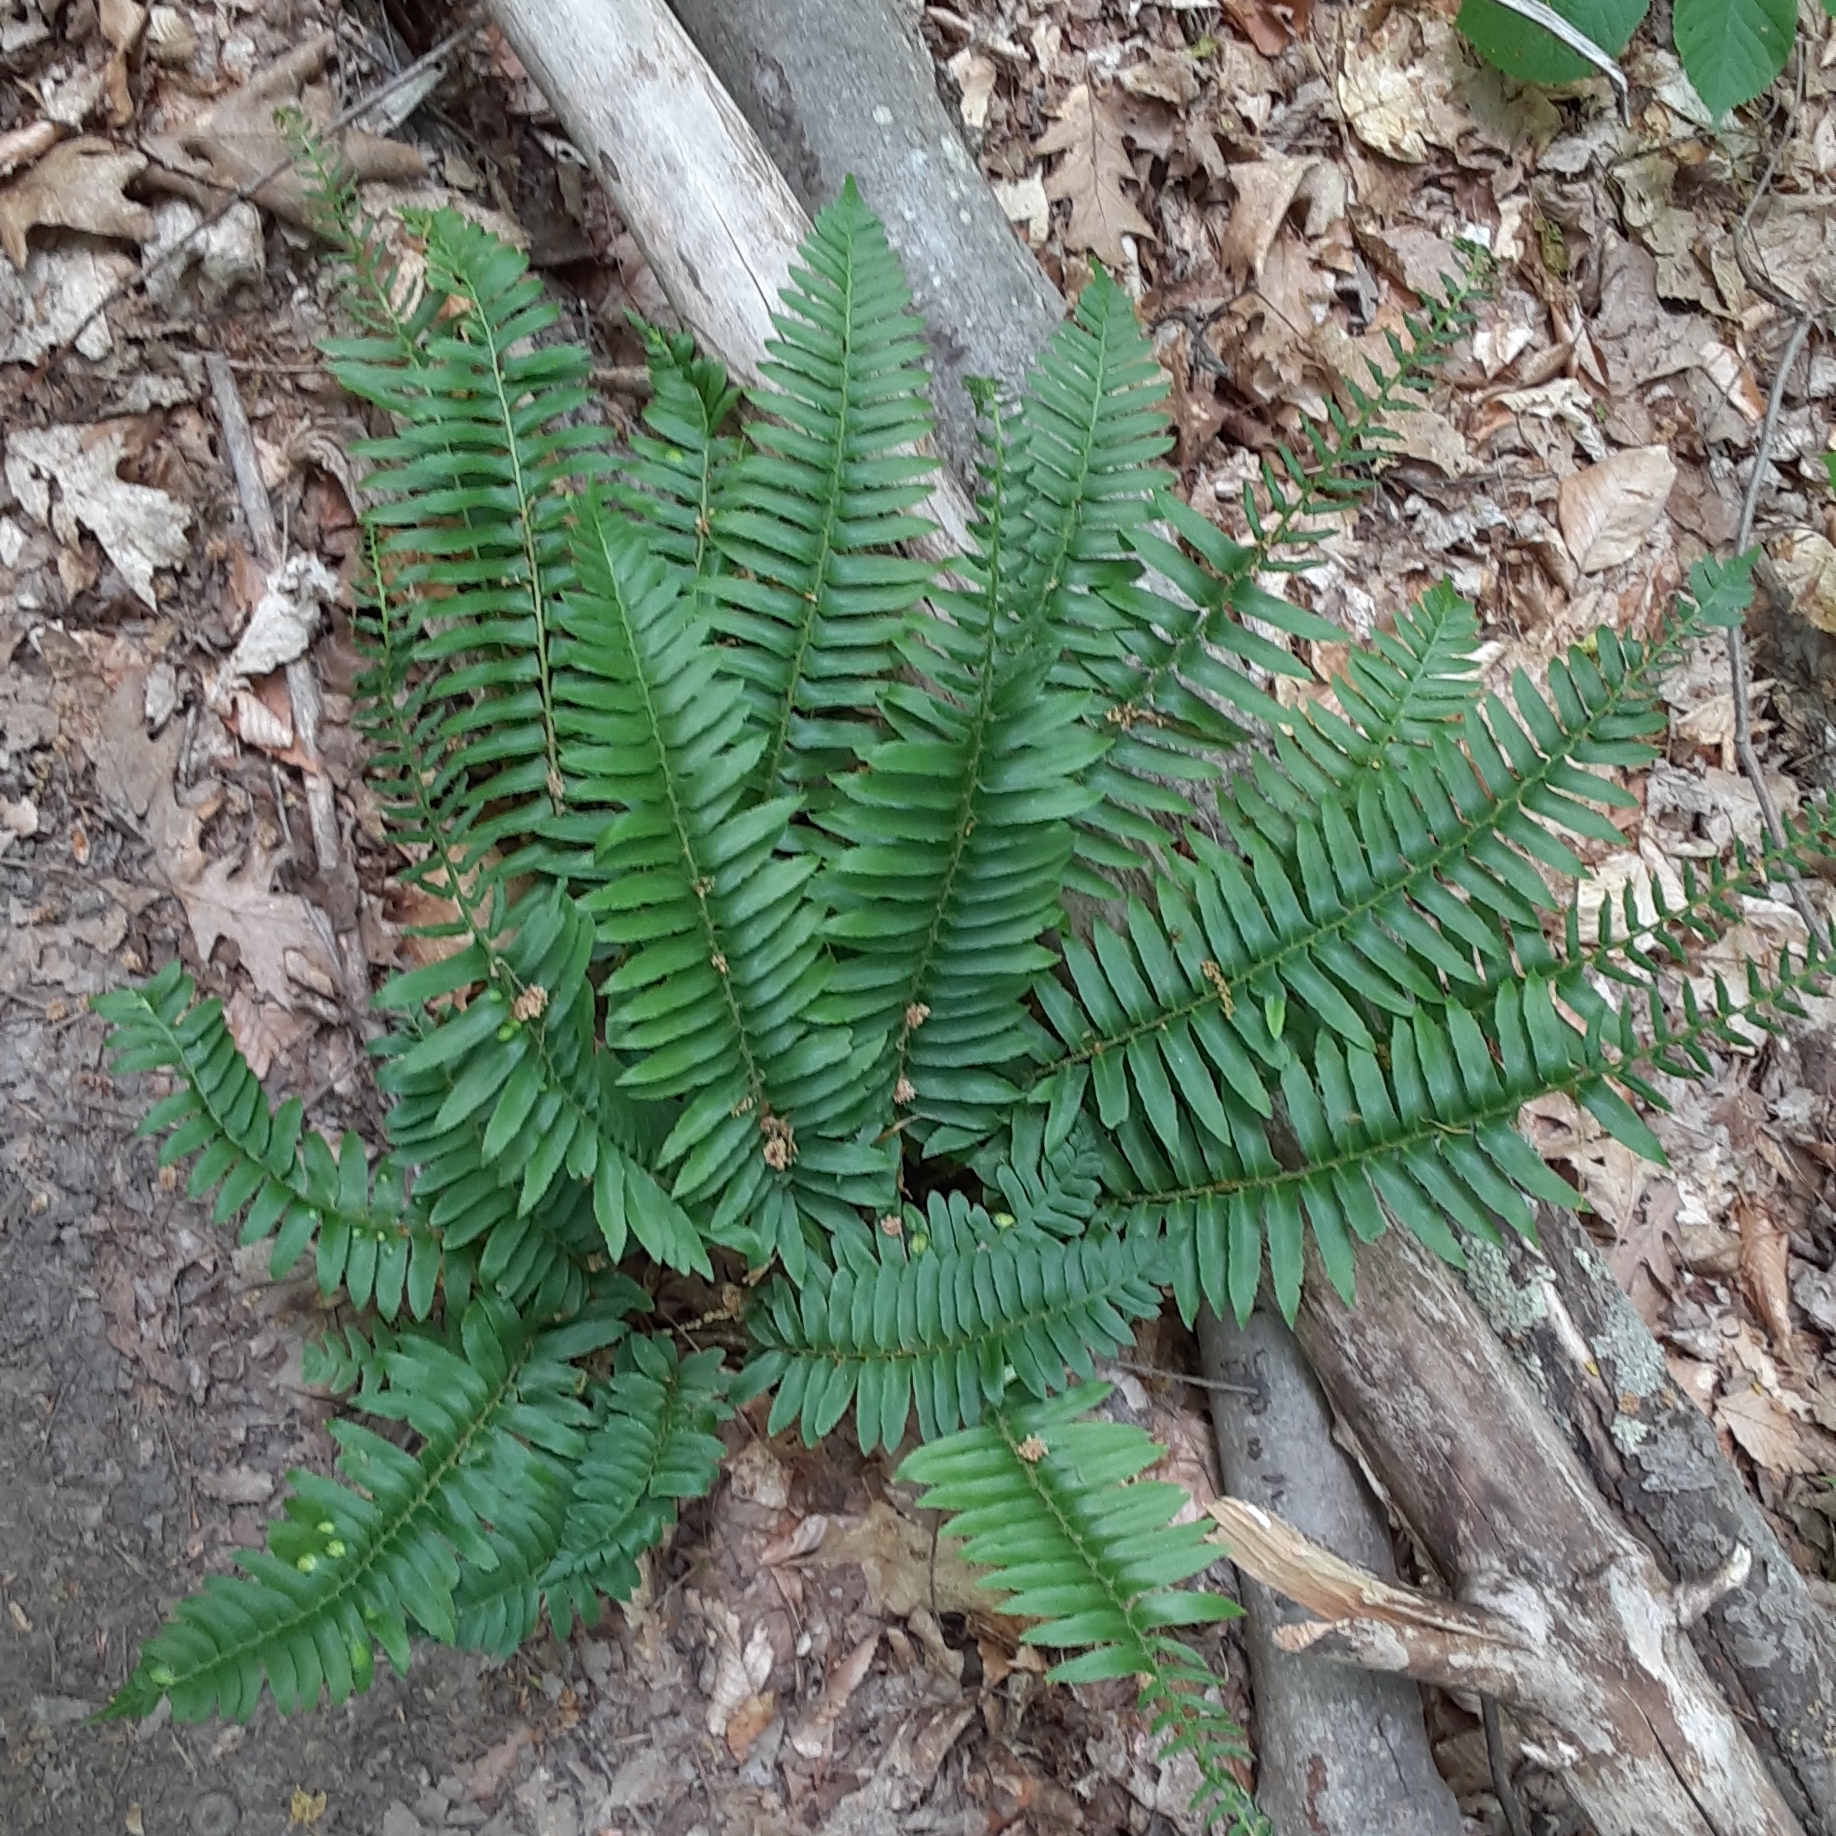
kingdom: Plantae
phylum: Tracheophyta
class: Polypodiopsida
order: Polypodiales
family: Dryopteridaceae
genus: Polystichum
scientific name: Polystichum acrostichoides
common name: Christmas fern
